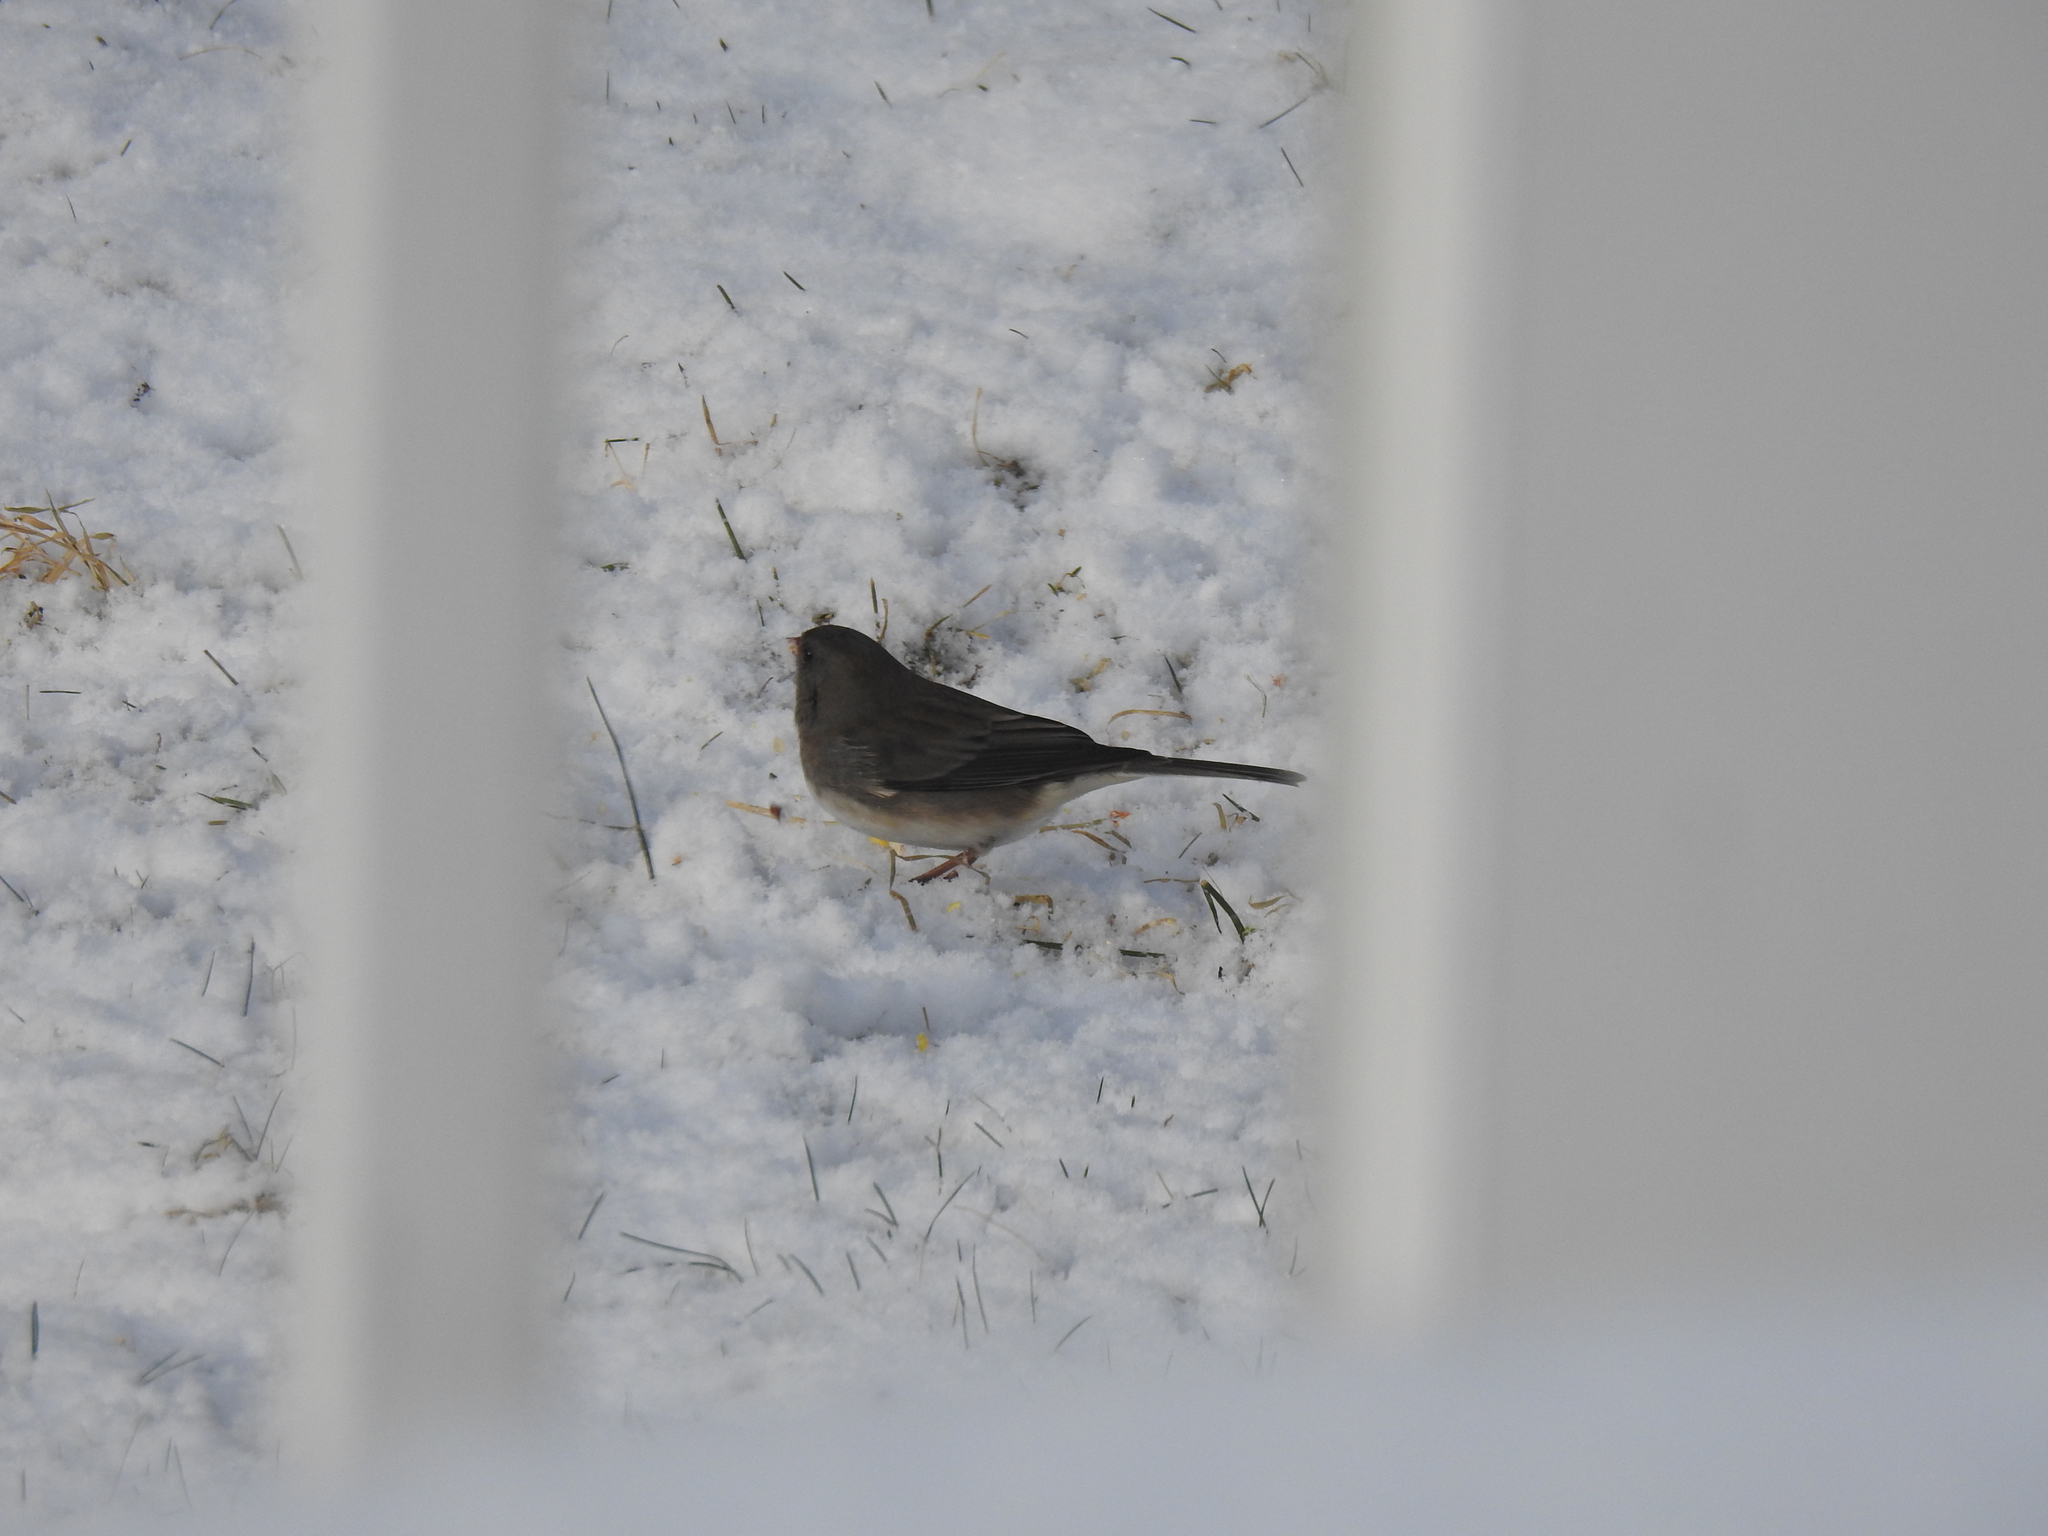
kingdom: Animalia
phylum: Chordata
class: Aves
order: Passeriformes
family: Passerellidae
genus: Junco
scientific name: Junco hyemalis
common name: Dark-eyed junco
